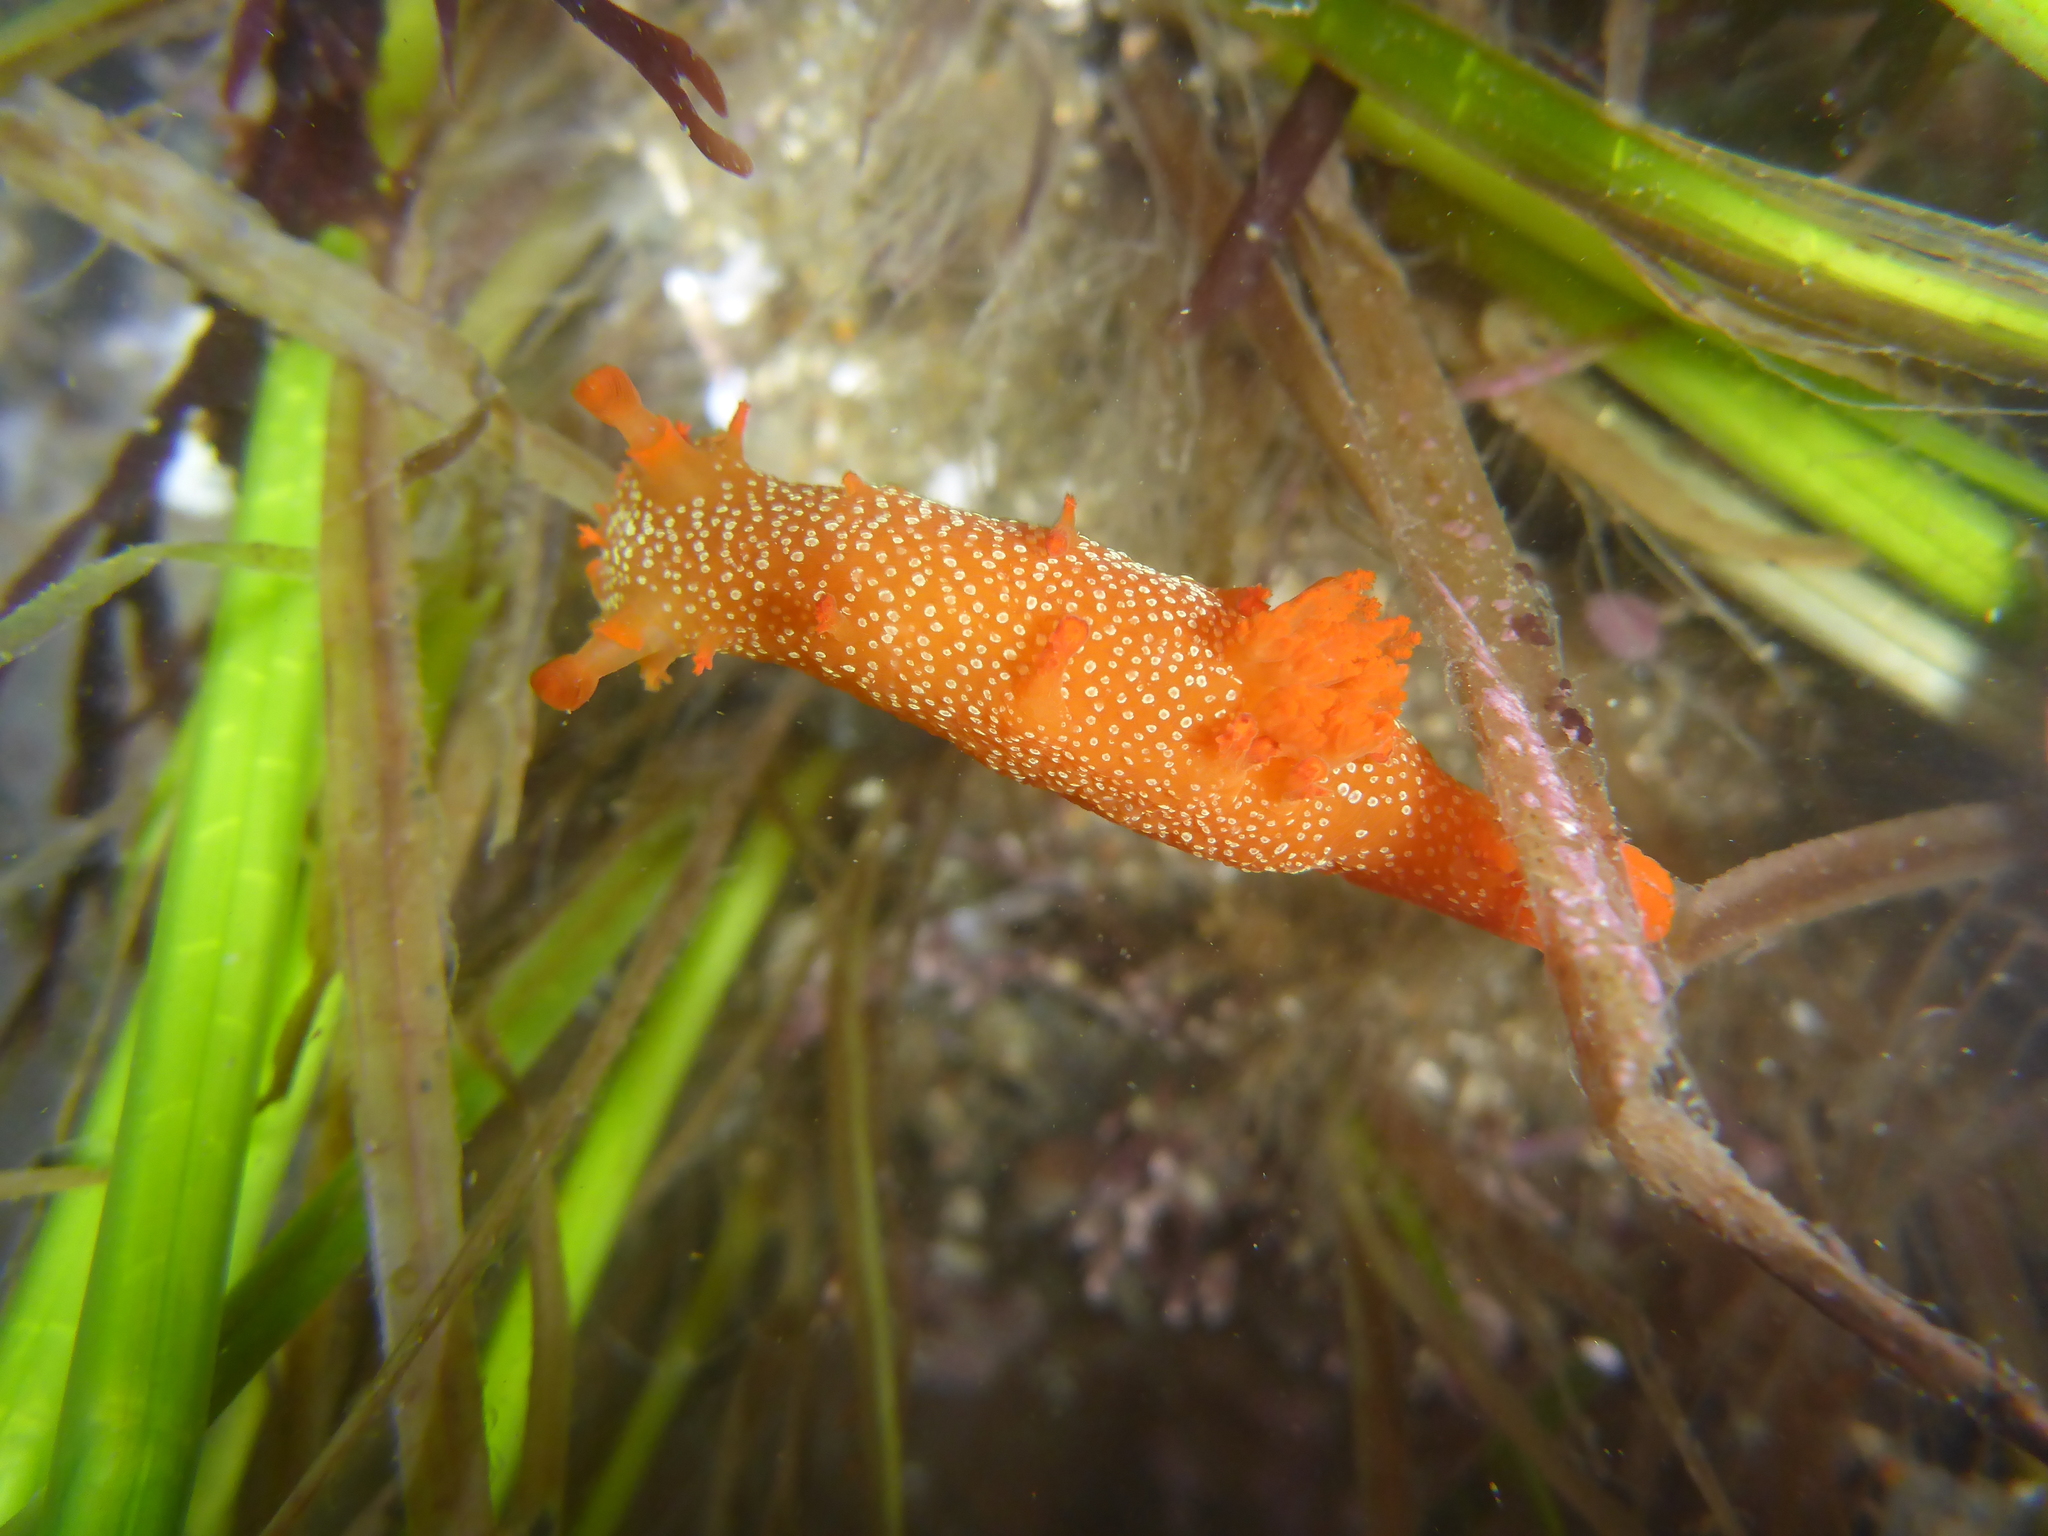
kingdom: Animalia
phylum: Mollusca
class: Gastropoda
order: Nudibranchia
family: Polyceridae
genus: Triopha
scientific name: Triopha maculata
